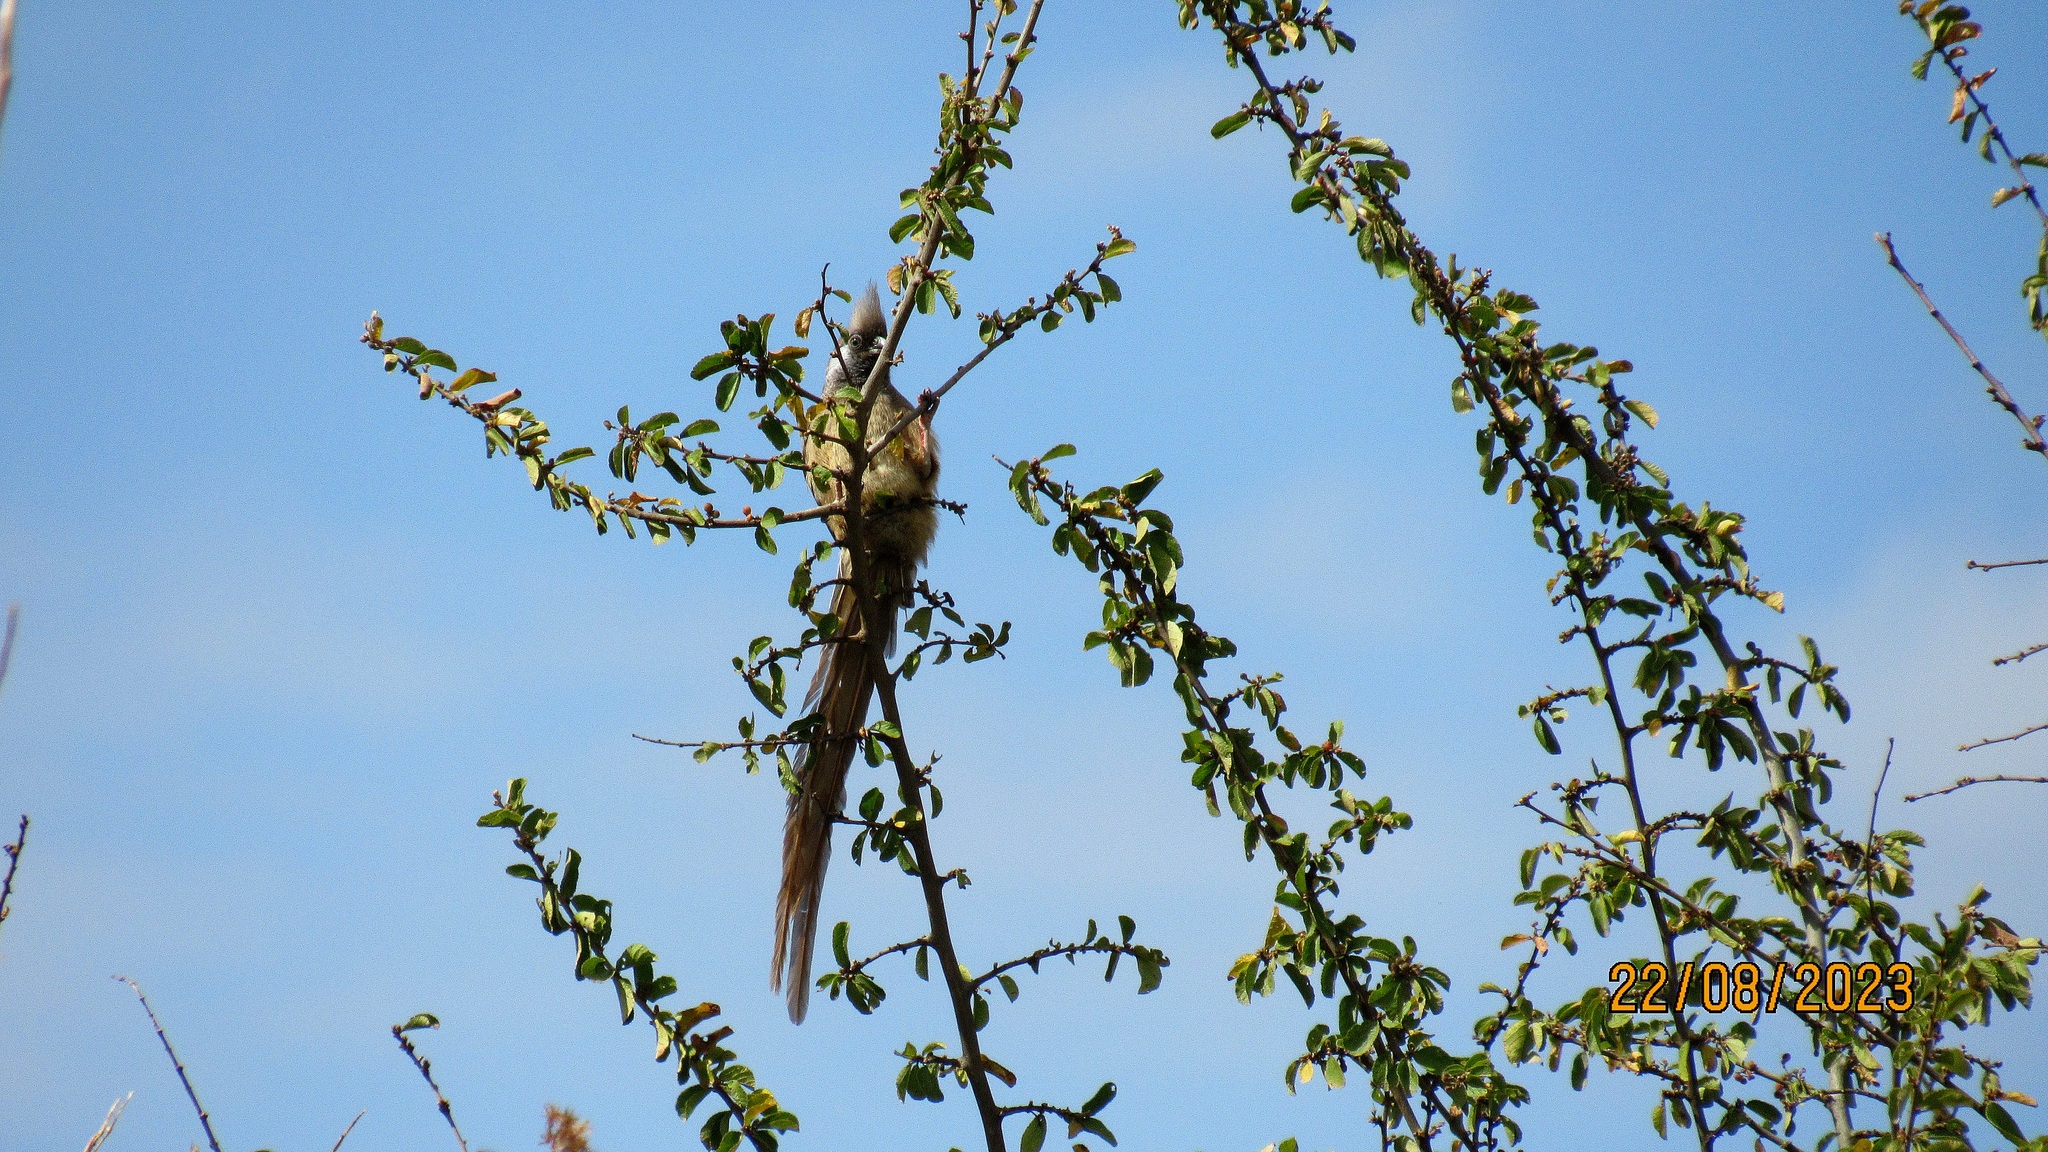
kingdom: Animalia
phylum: Chordata
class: Aves
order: Coliiformes
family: Coliidae
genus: Colius
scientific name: Colius striatus
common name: Speckled mousebird
